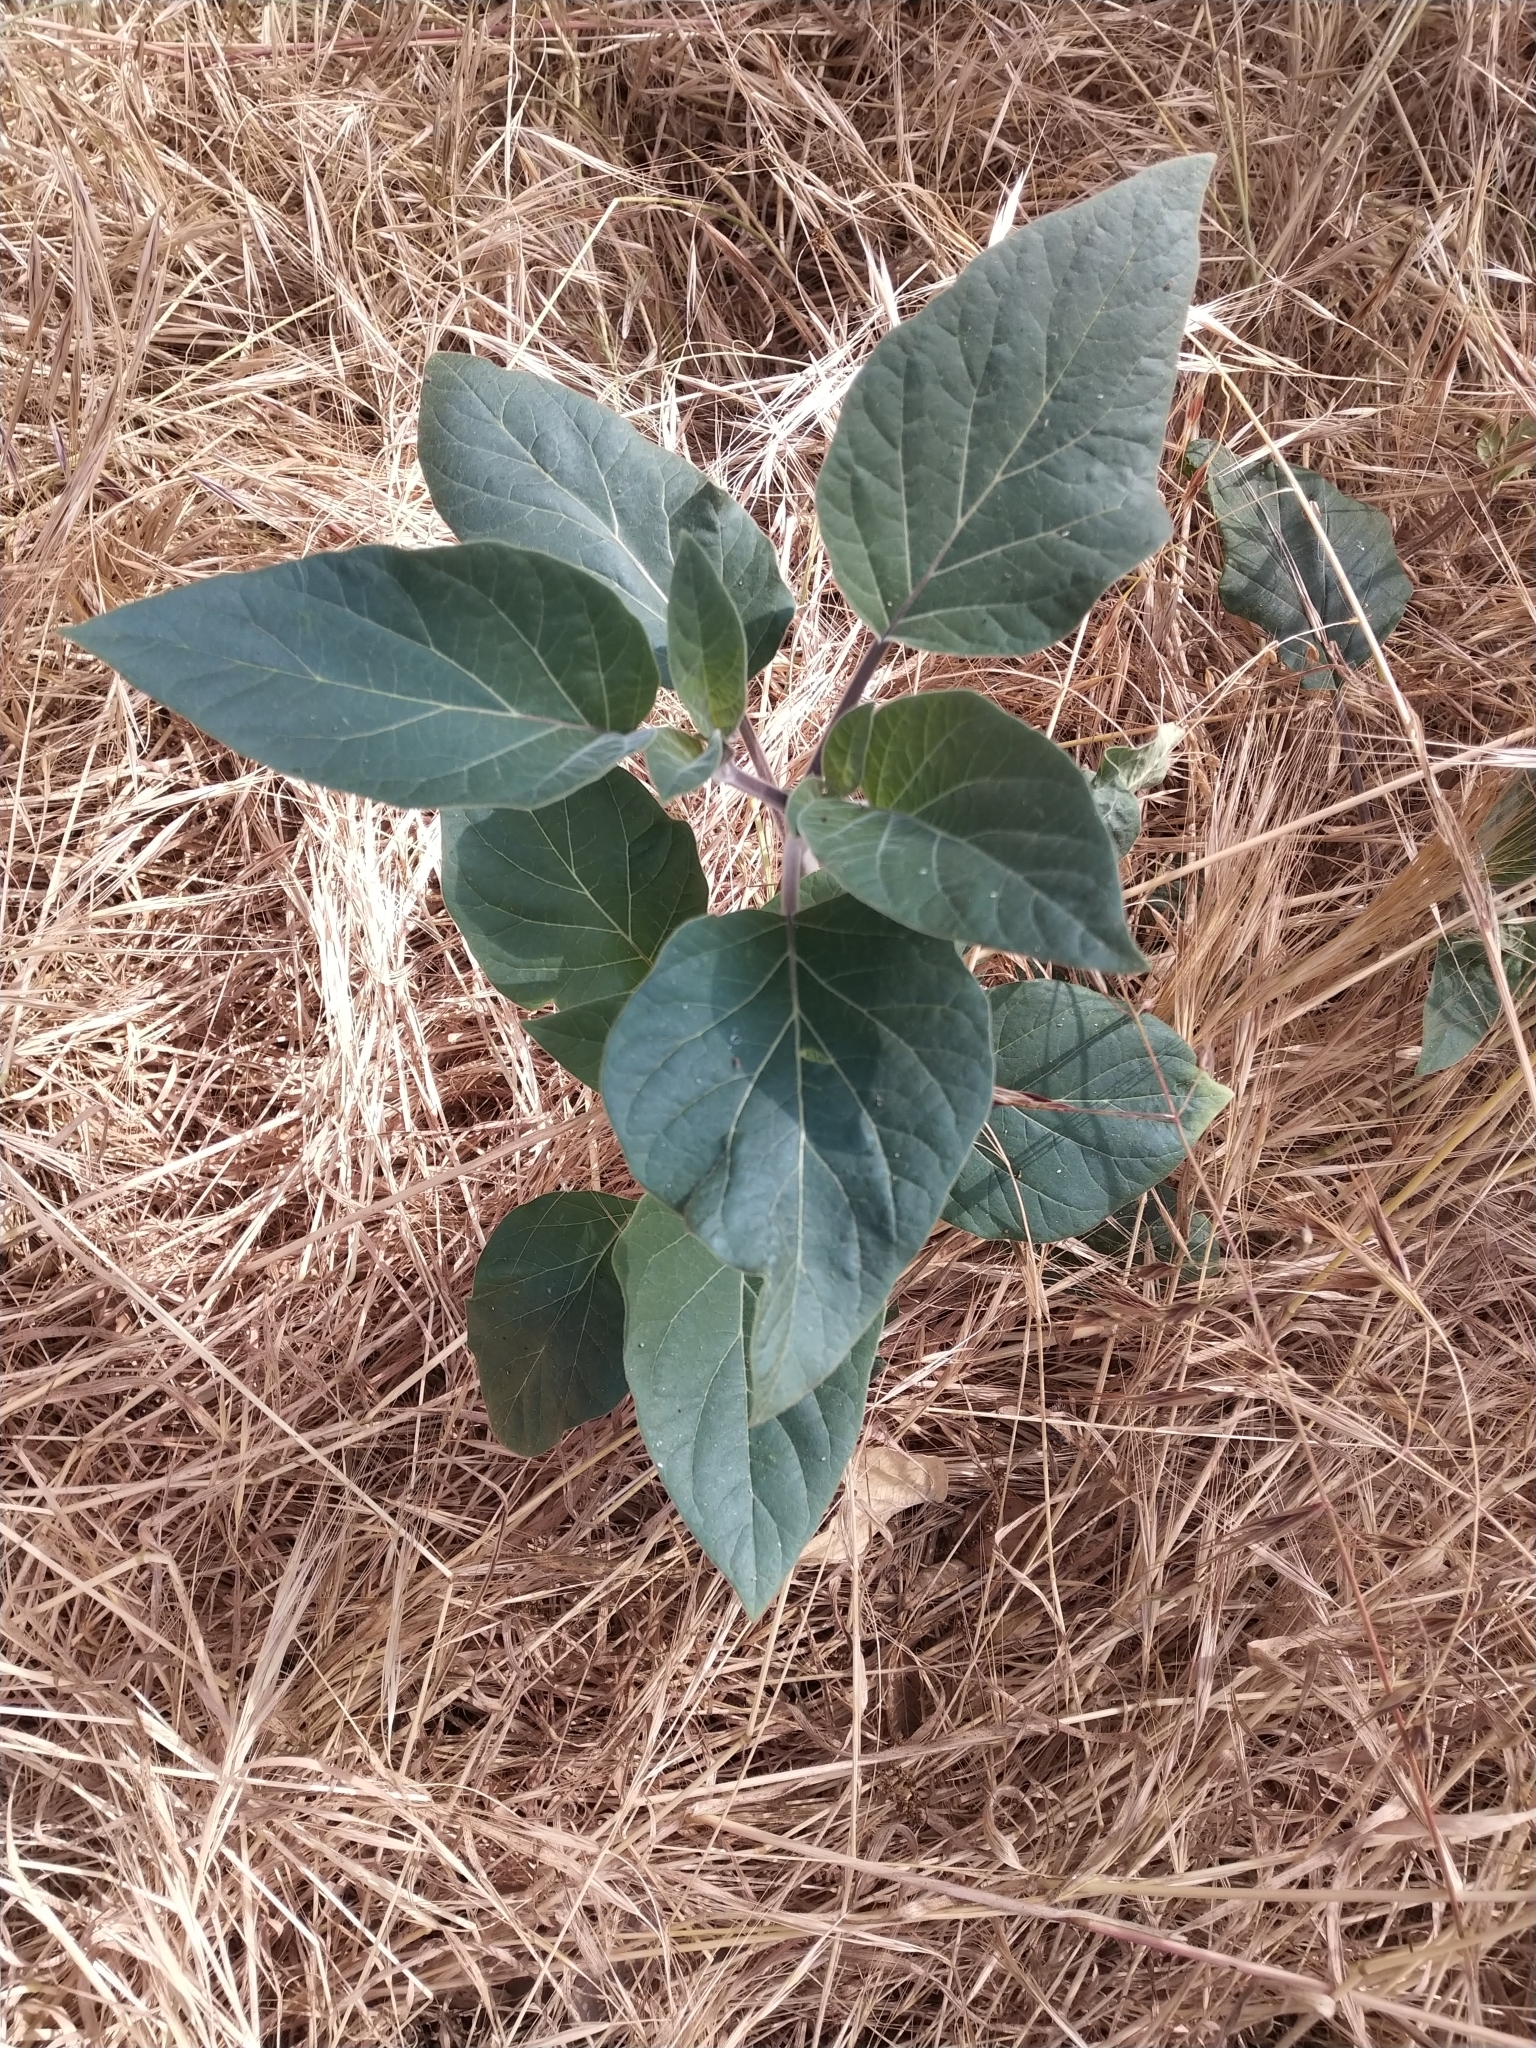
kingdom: Plantae
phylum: Tracheophyta
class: Magnoliopsida
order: Solanales
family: Solanaceae
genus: Datura
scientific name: Datura wrightii
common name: Sacred thorn-apple
